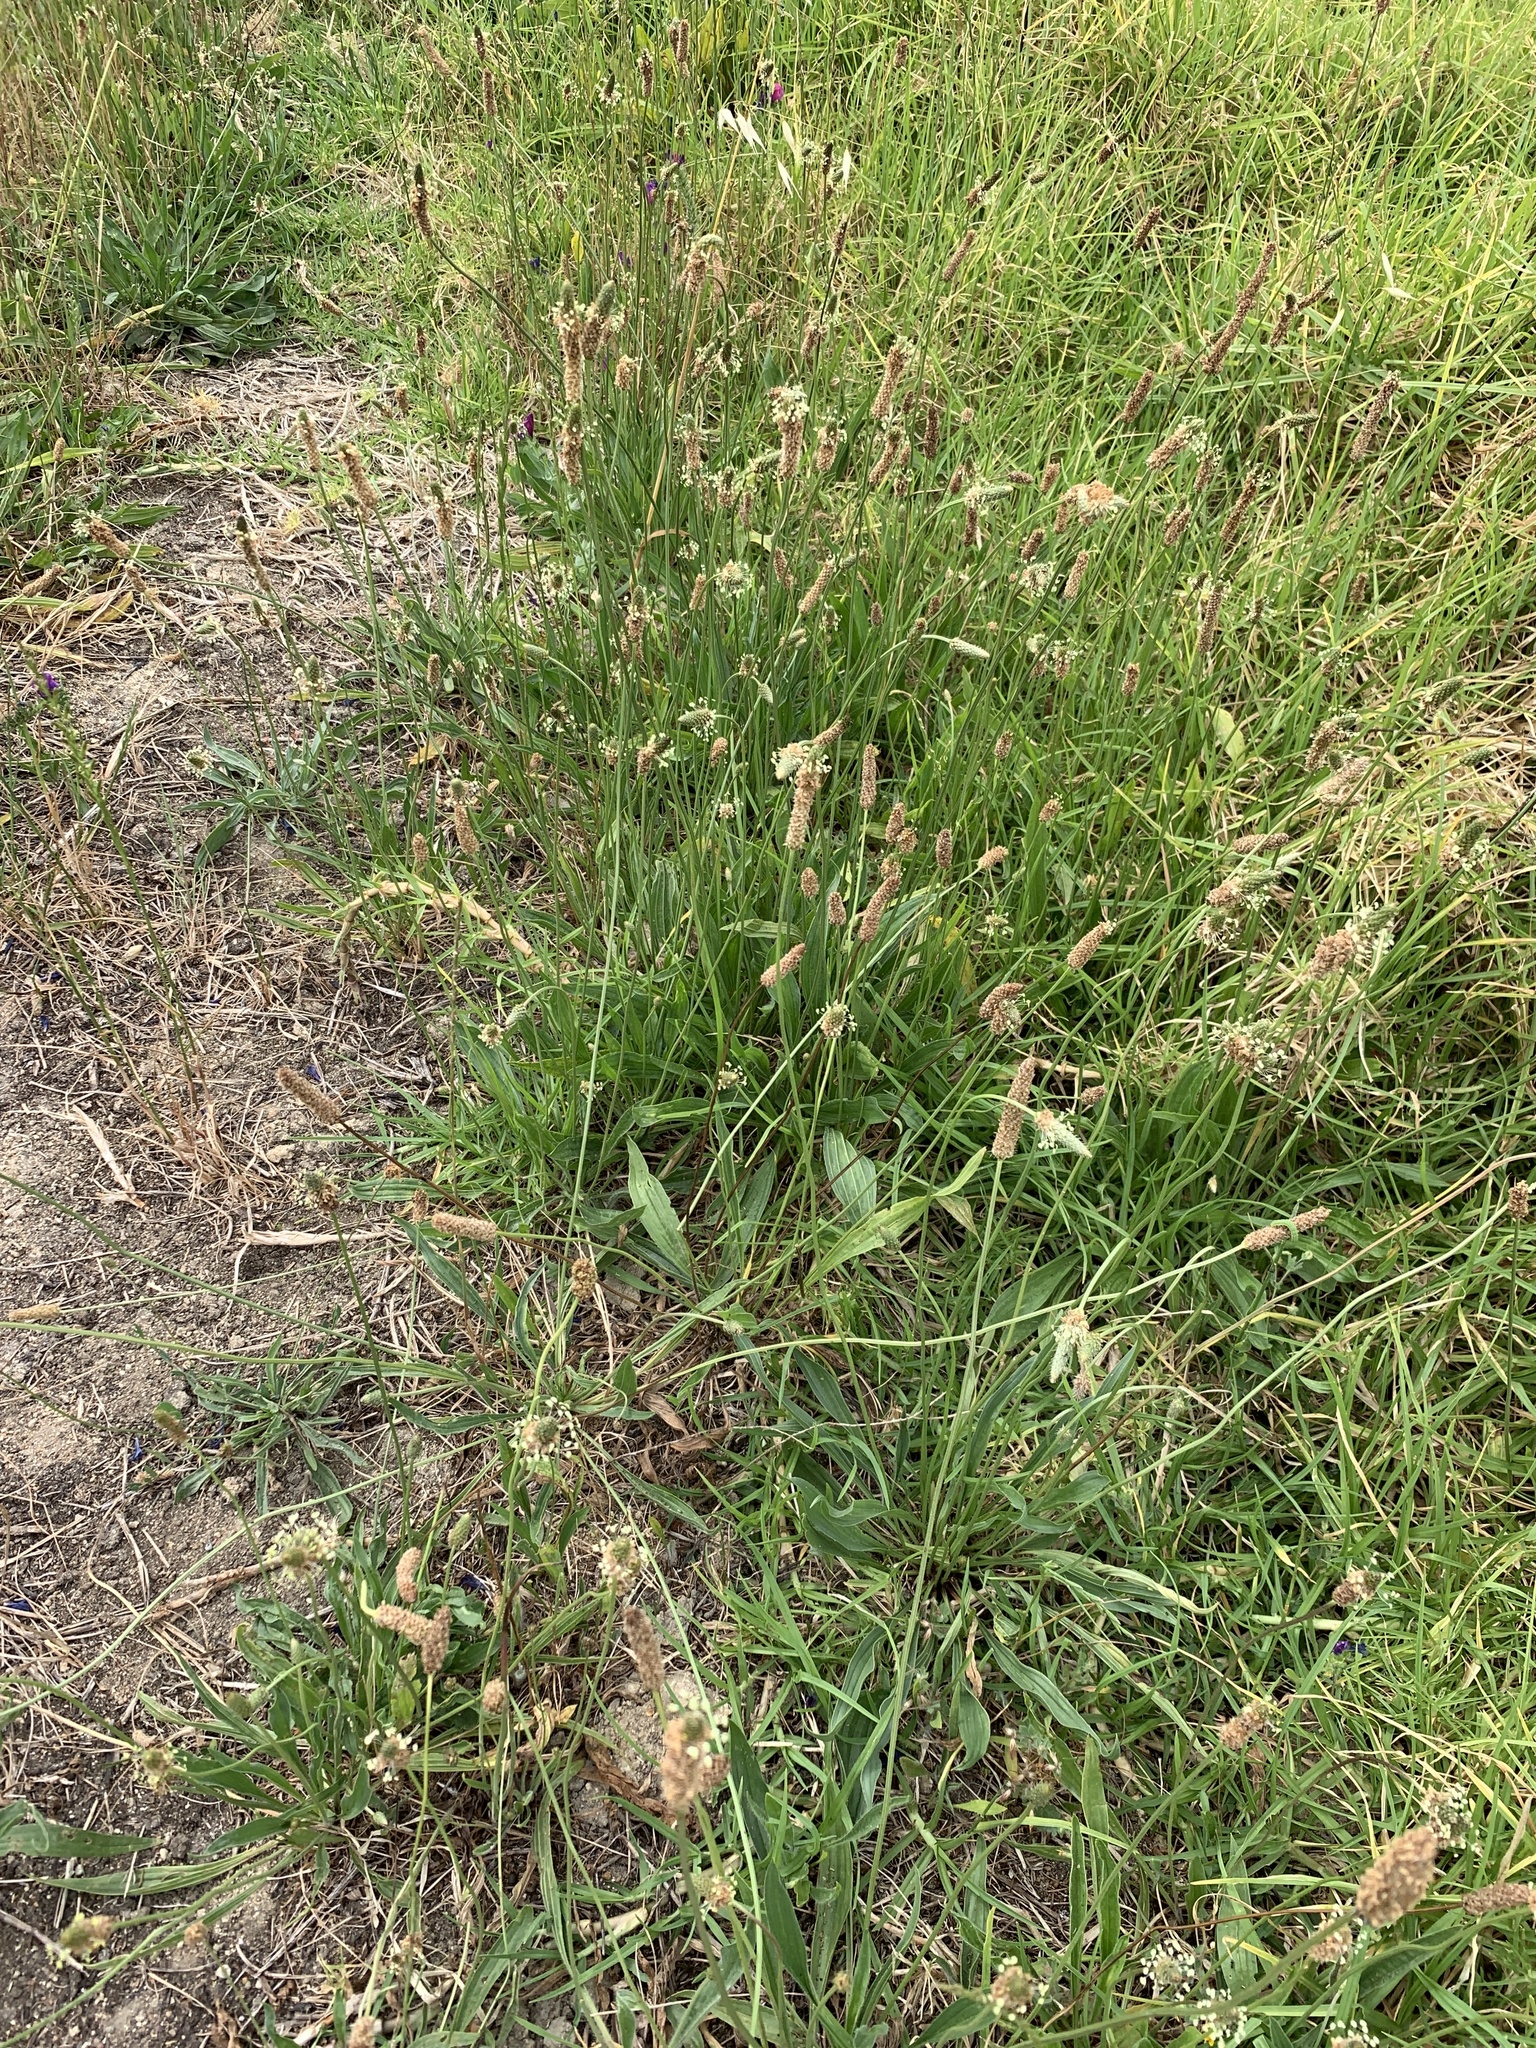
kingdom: Plantae
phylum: Tracheophyta
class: Magnoliopsida
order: Lamiales
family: Plantaginaceae
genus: Plantago
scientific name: Plantago lanceolata
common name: Ribwort plantain
